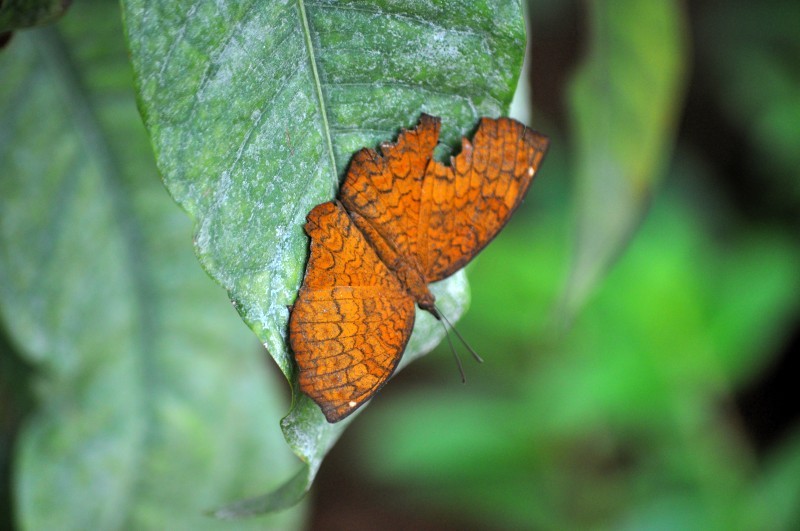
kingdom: Animalia
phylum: Arthropoda
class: Insecta
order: Lepidoptera
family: Nymphalidae
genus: Ariadne
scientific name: Ariadne merione
